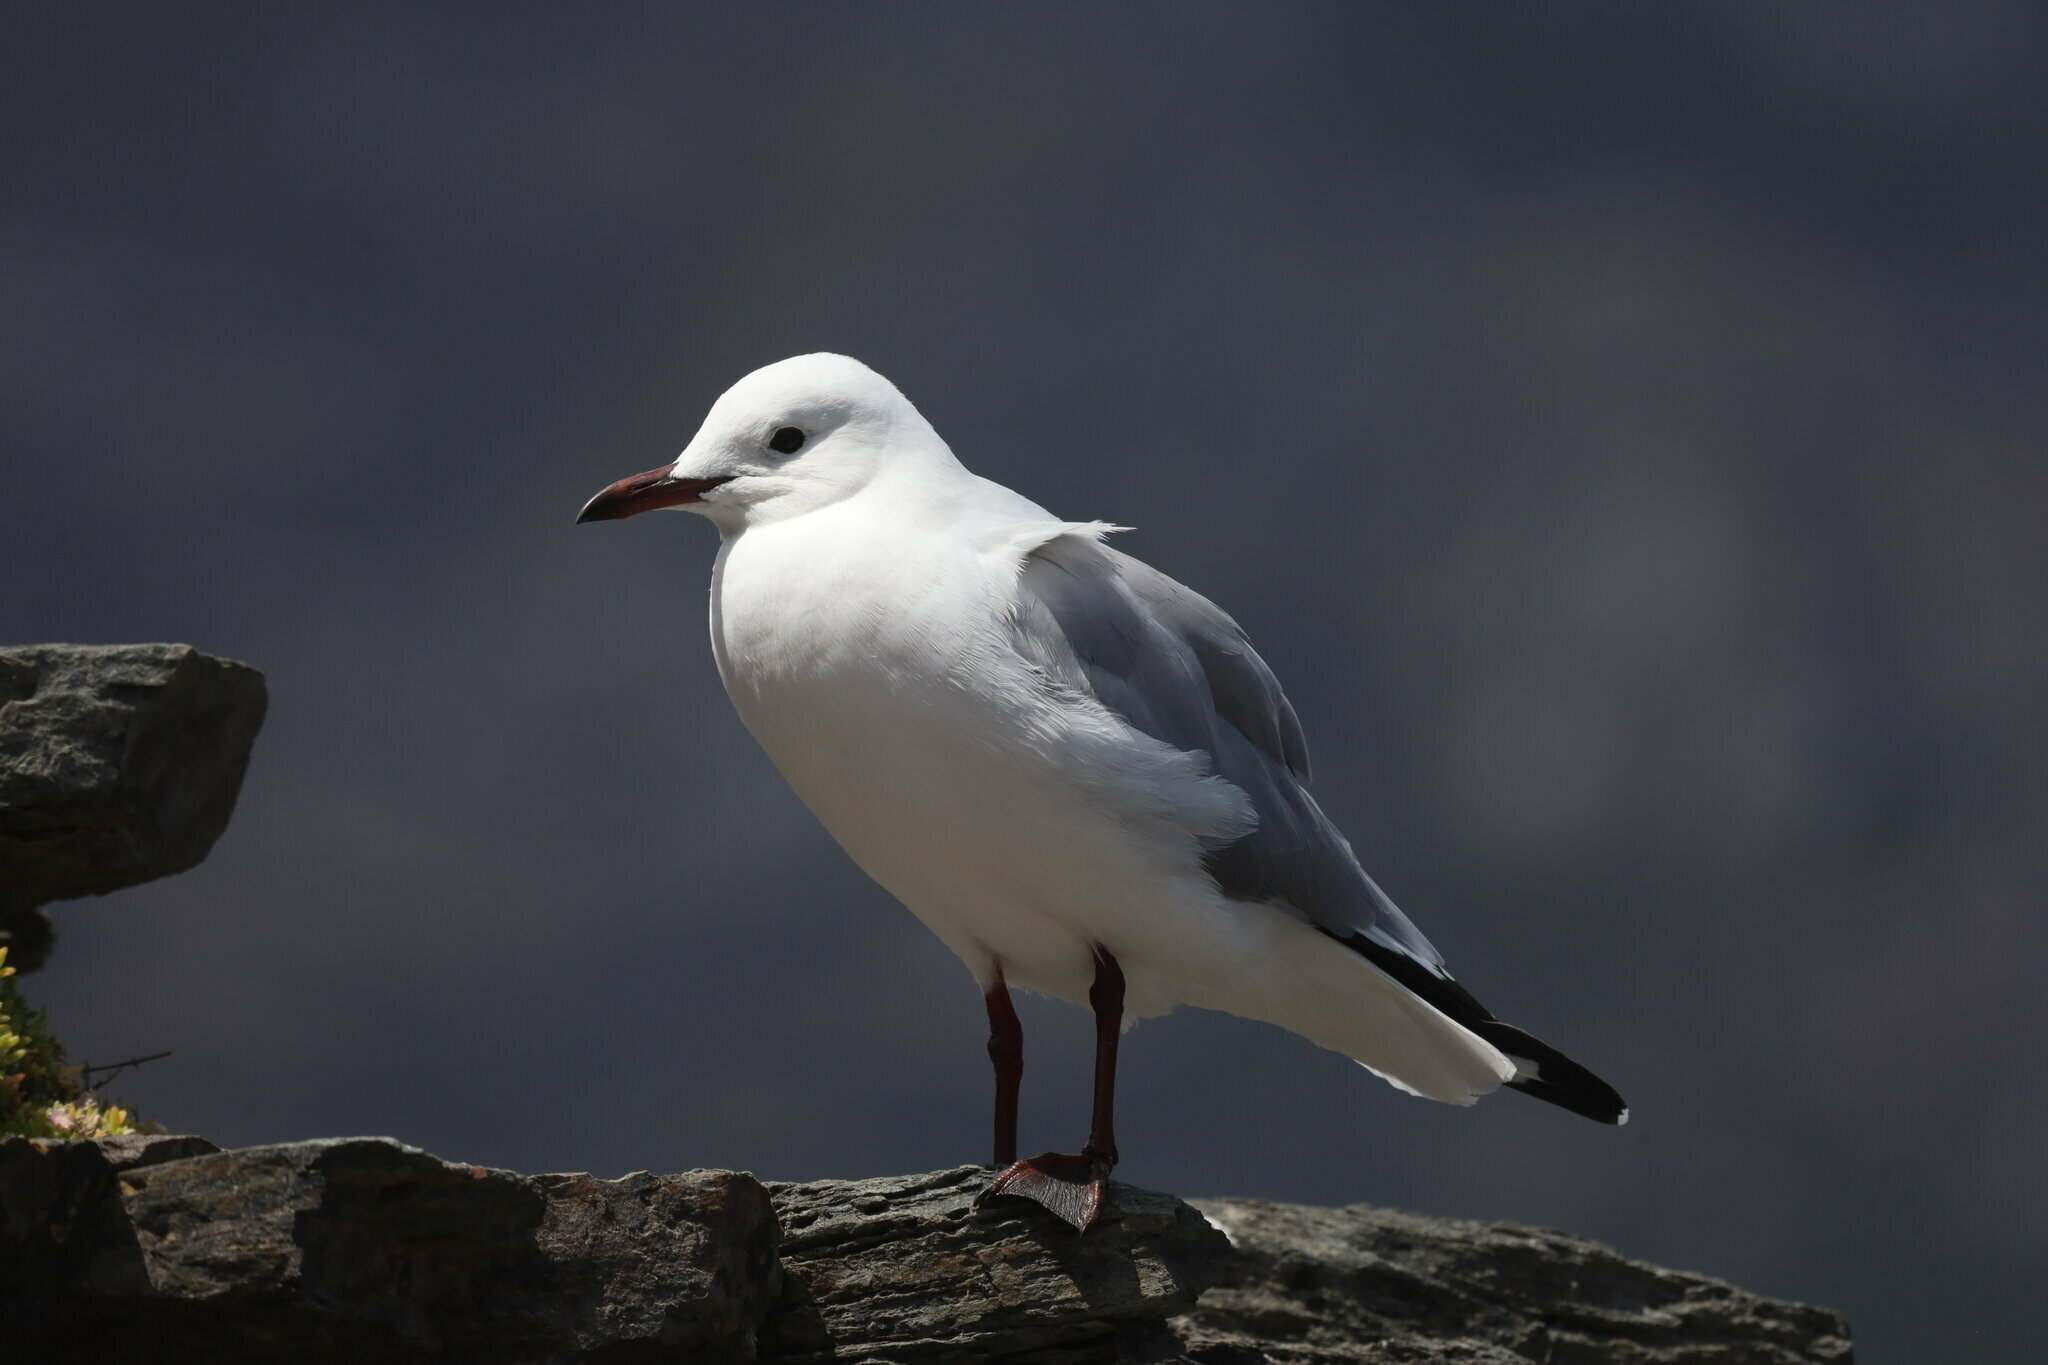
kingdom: Animalia
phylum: Chordata
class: Aves
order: Charadriiformes
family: Laridae
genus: Chroicocephalus
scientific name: Chroicocephalus hartlaubii
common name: Hartlaub's gull
